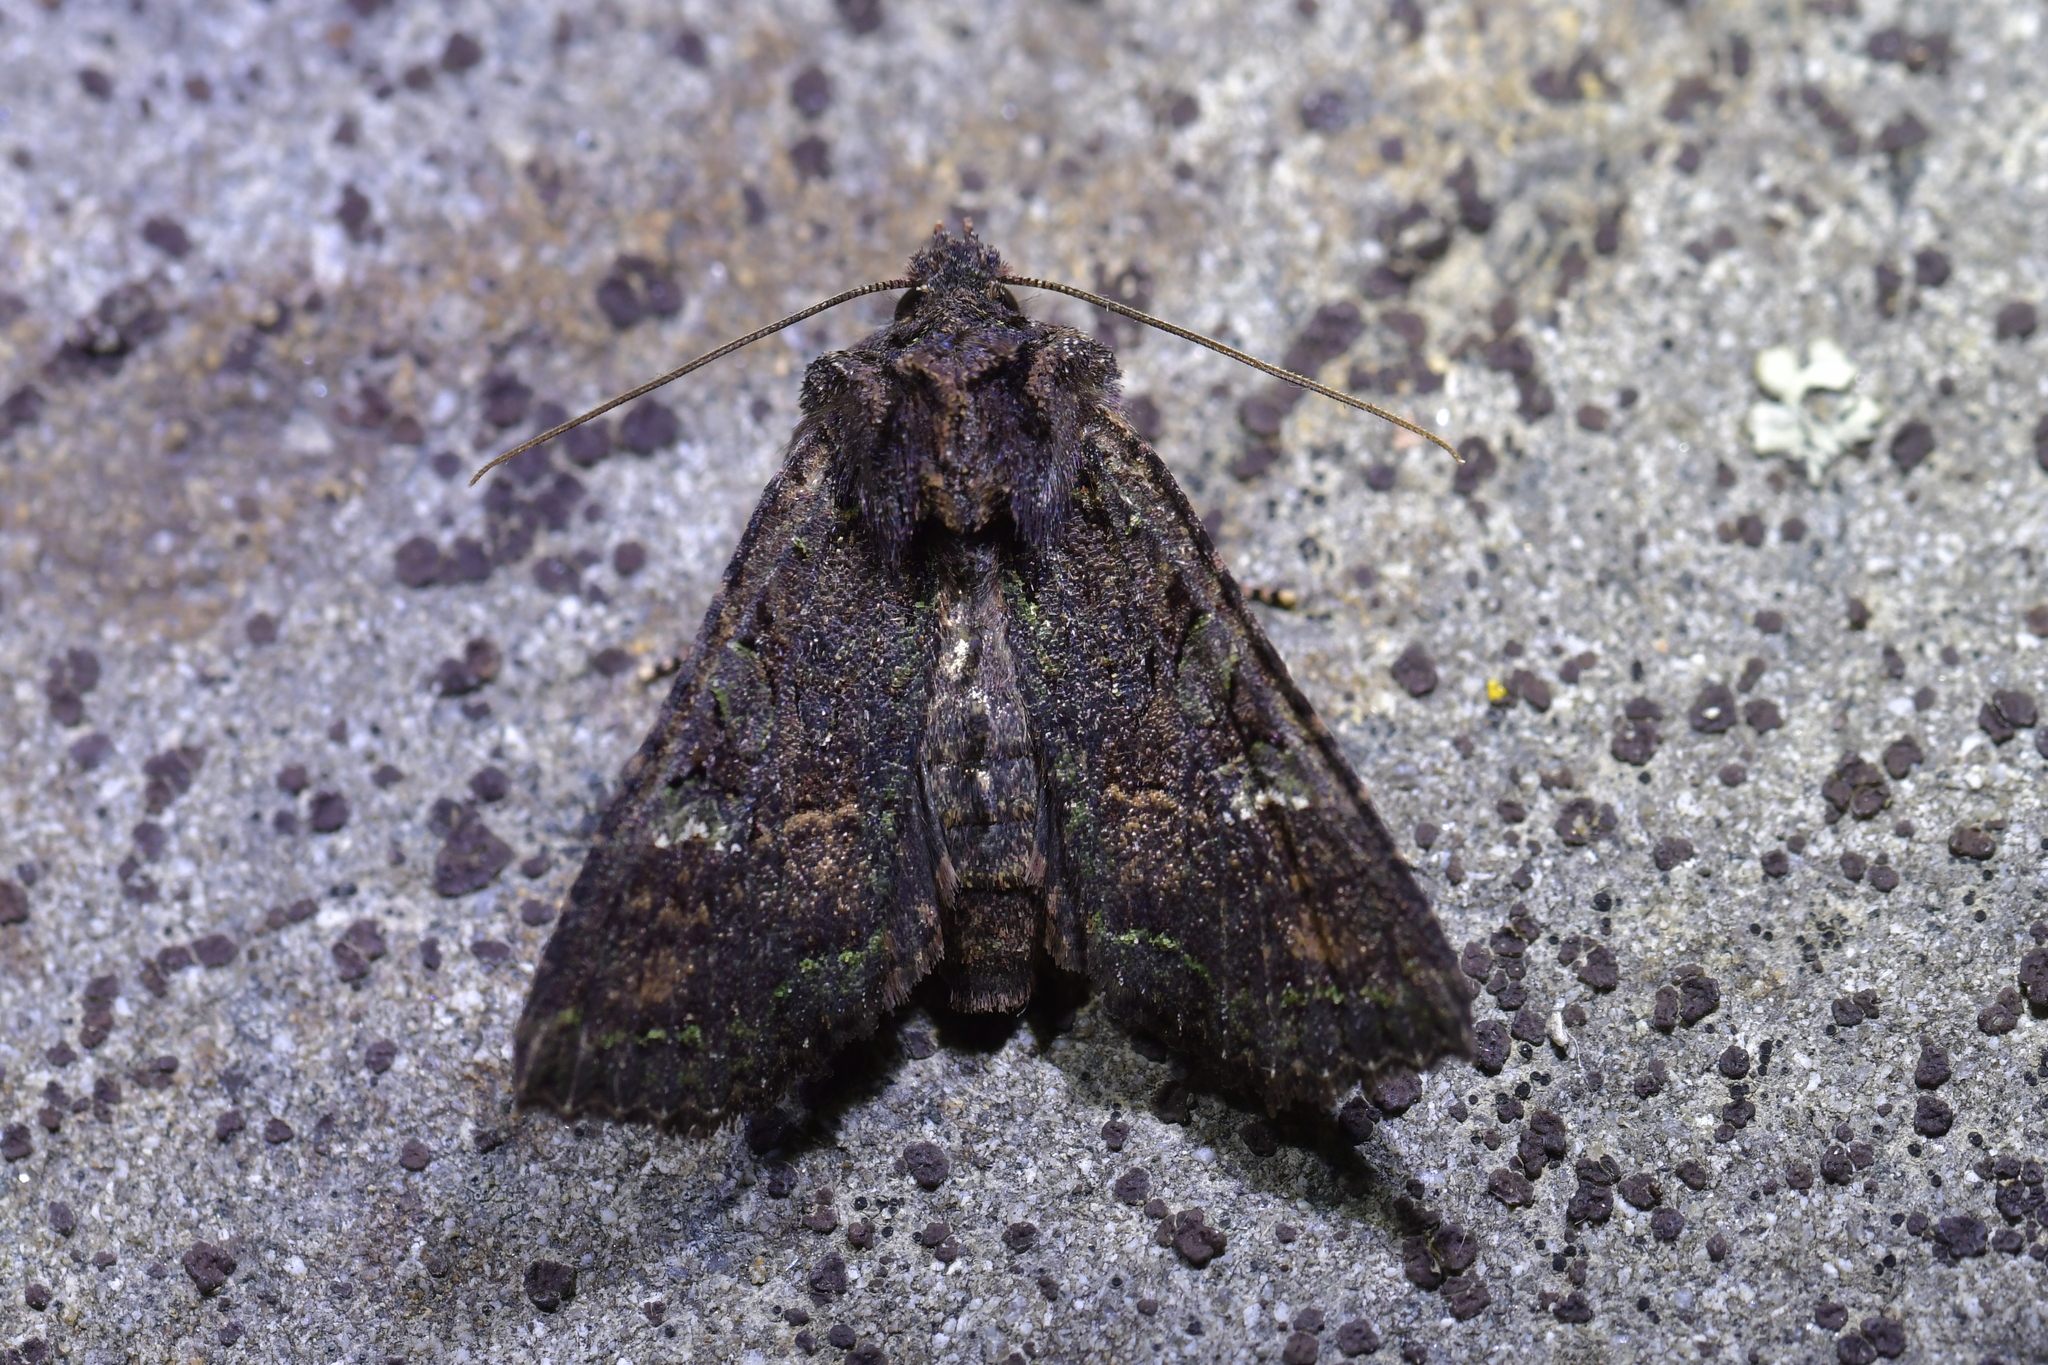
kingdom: Animalia
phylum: Arthropoda
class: Insecta
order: Lepidoptera
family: Noctuidae
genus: Meterana
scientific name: Meterana ochthistis
